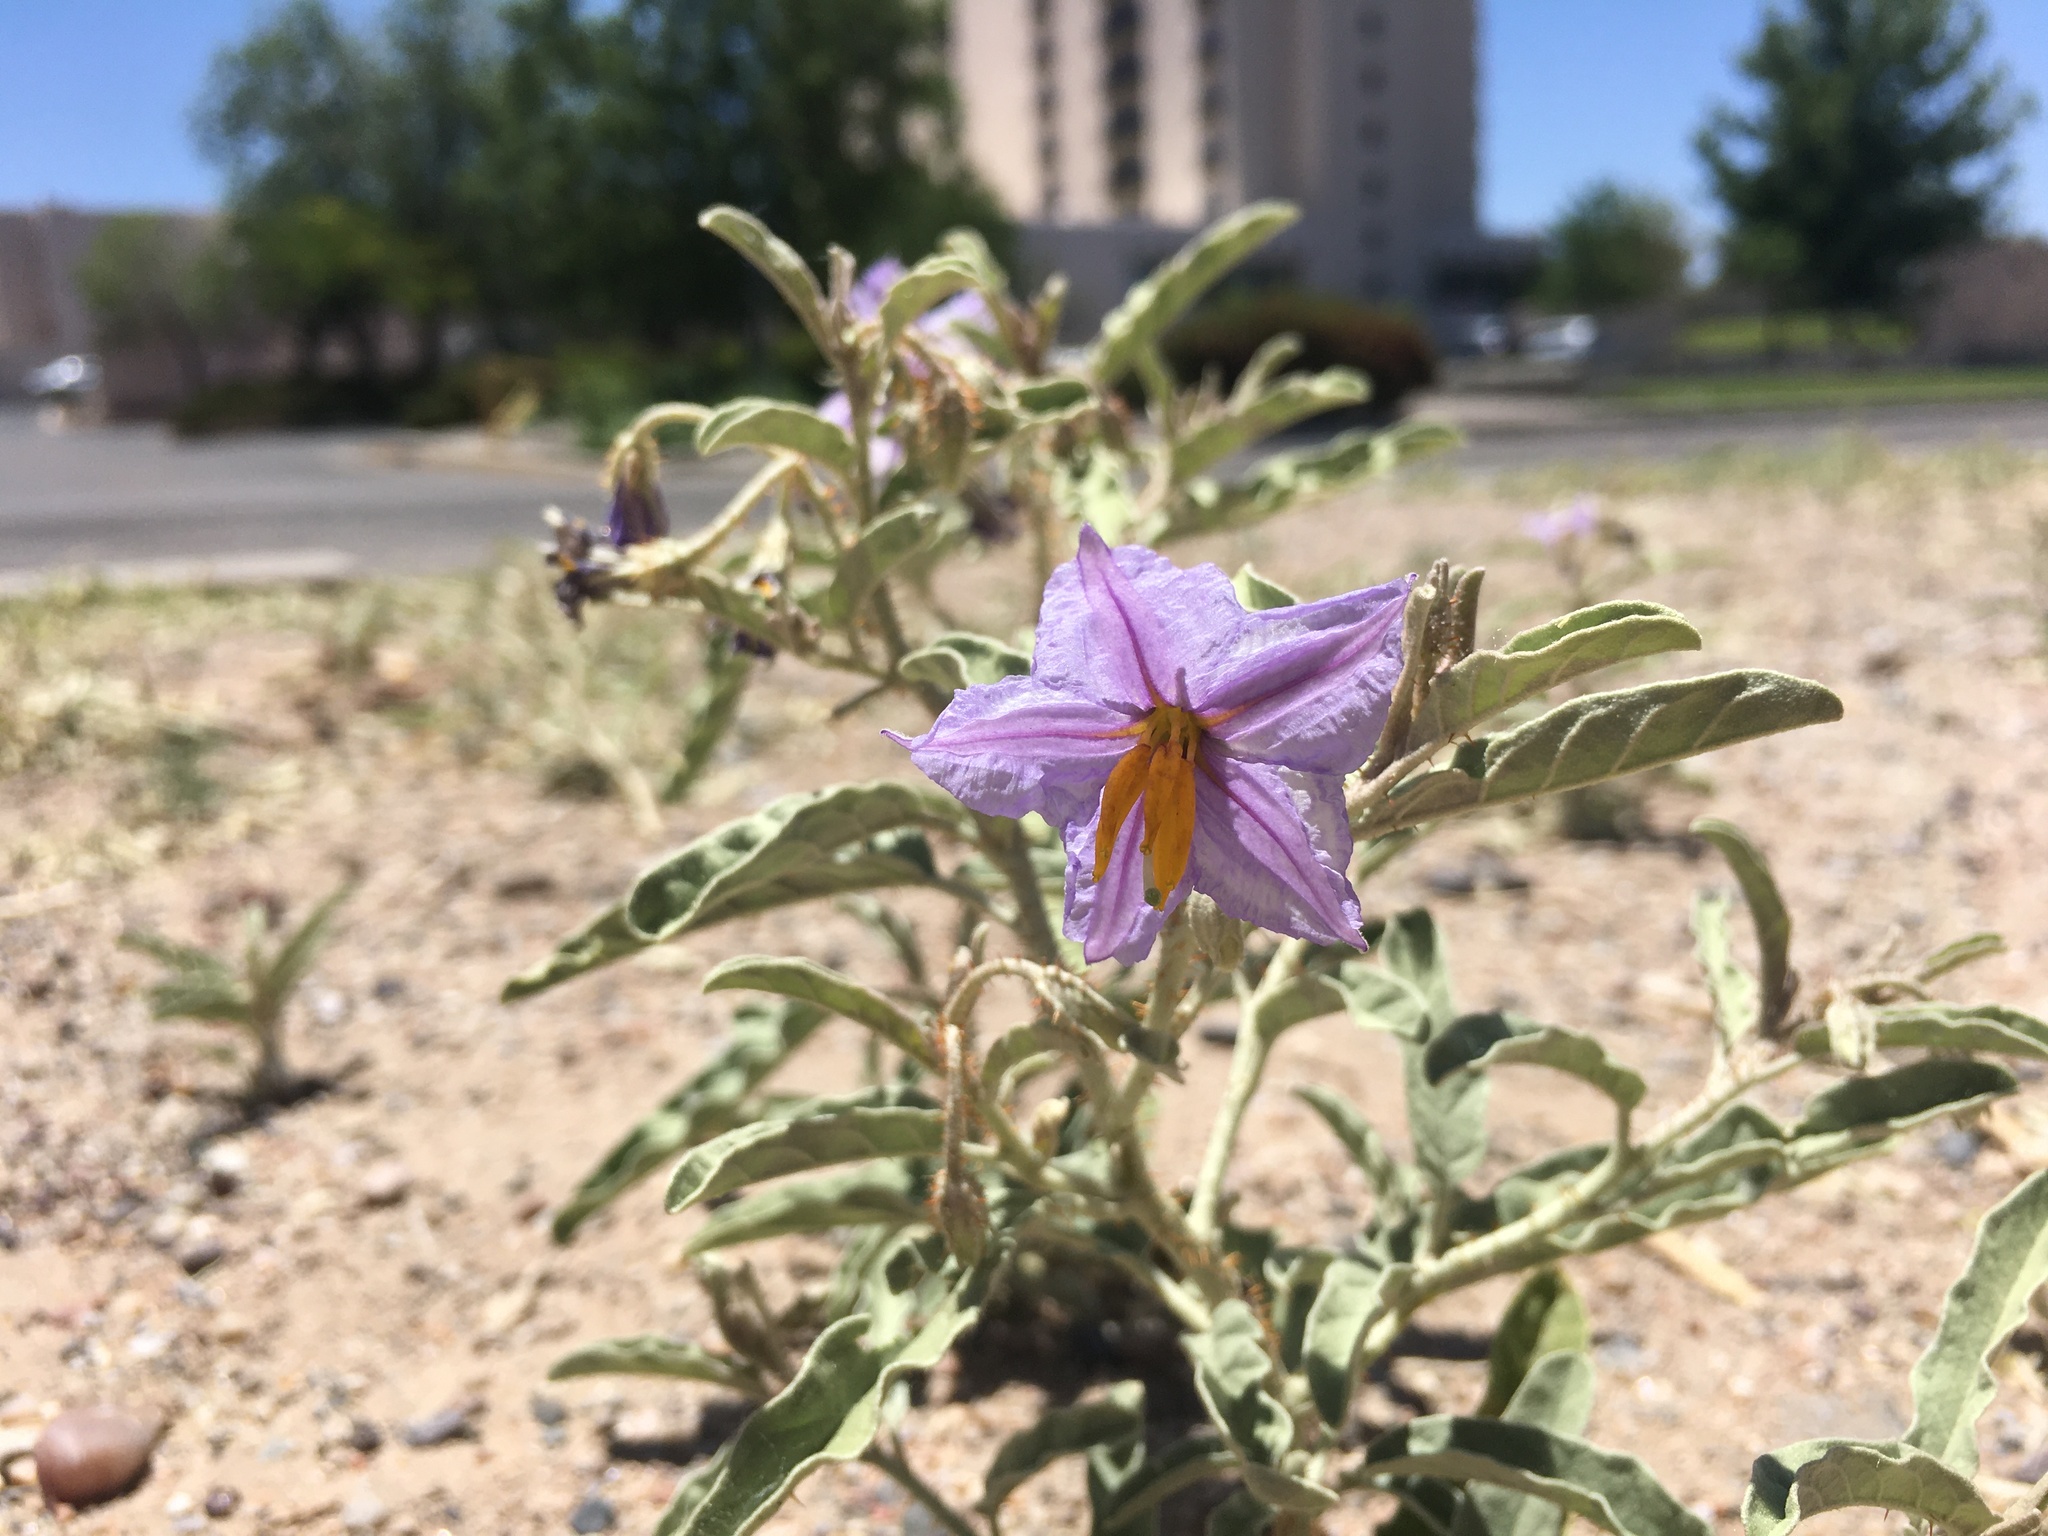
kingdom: Plantae
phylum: Tracheophyta
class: Magnoliopsida
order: Solanales
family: Solanaceae
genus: Solanum
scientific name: Solanum elaeagnifolium
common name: Silverleaf nightshade
